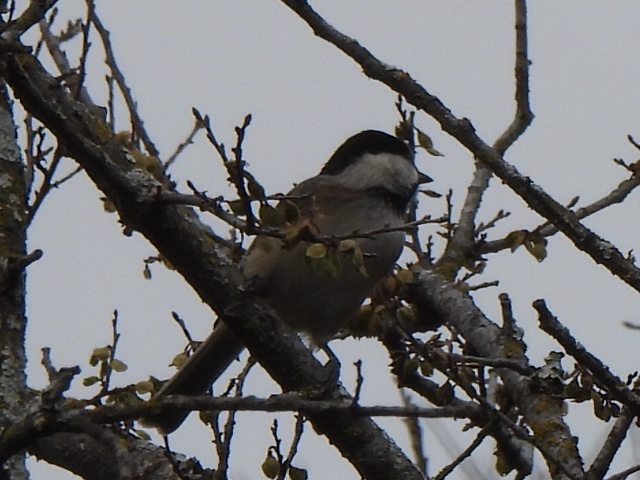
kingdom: Animalia
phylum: Chordata
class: Aves
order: Passeriformes
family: Paridae
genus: Poecile
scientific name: Poecile carolinensis
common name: Carolina chickadee
